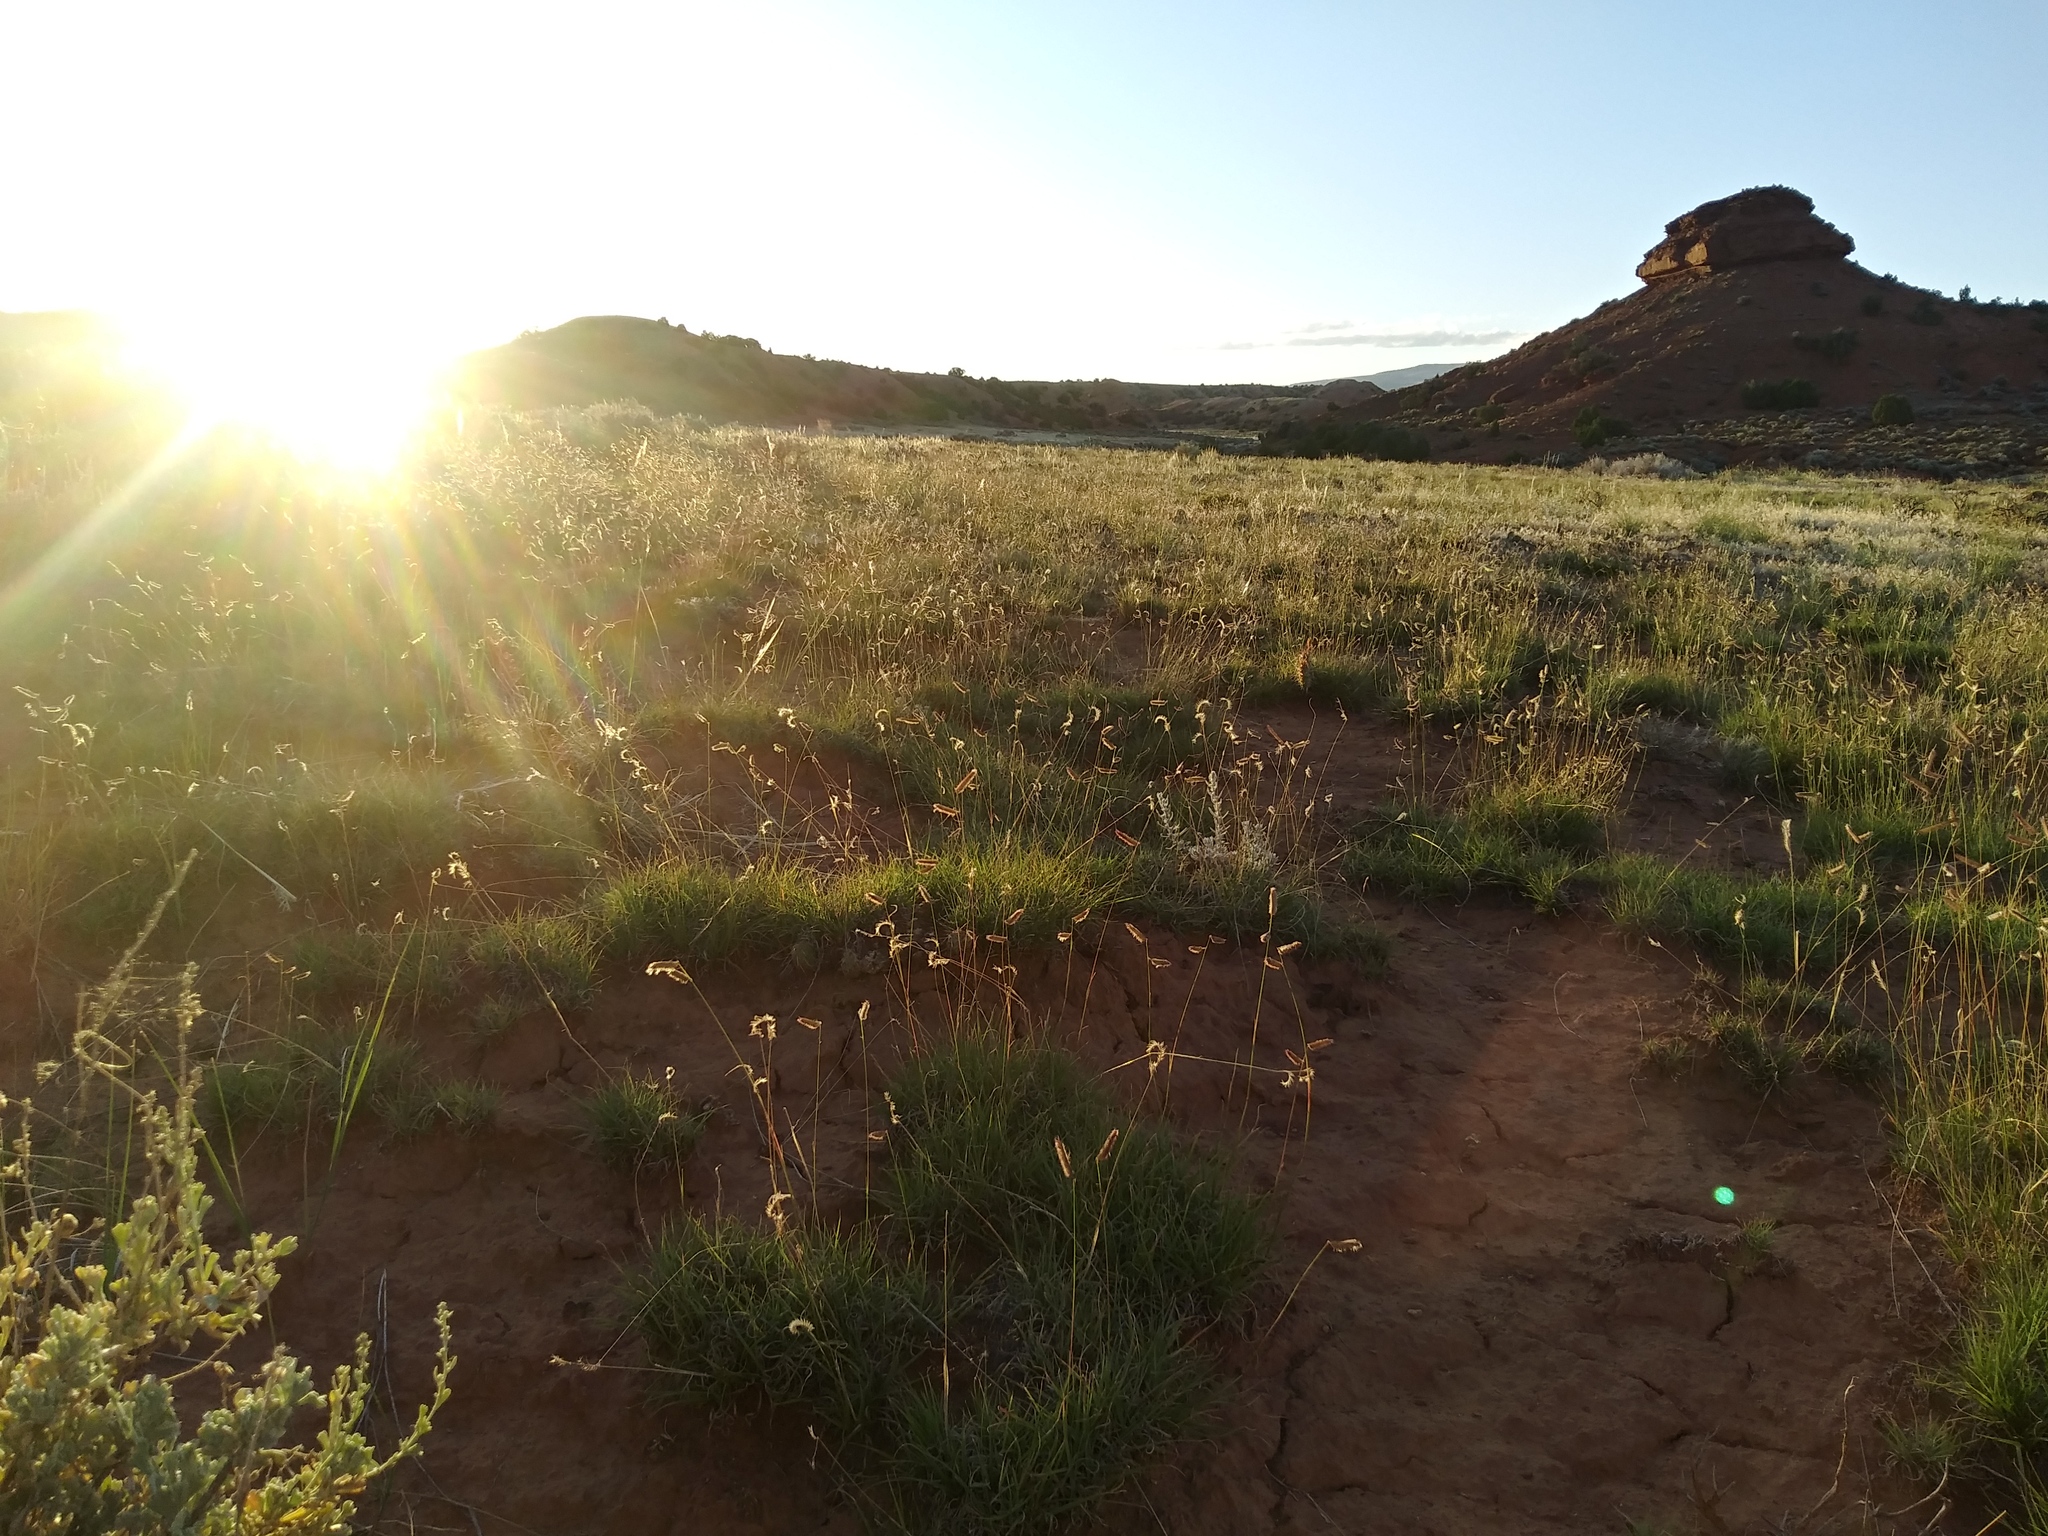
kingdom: Plantae
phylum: Tracheophyta
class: Liliopsida
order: Poales
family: Poaceae
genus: Bouteloua
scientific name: Bouteloua gracilis
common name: Blue grama
